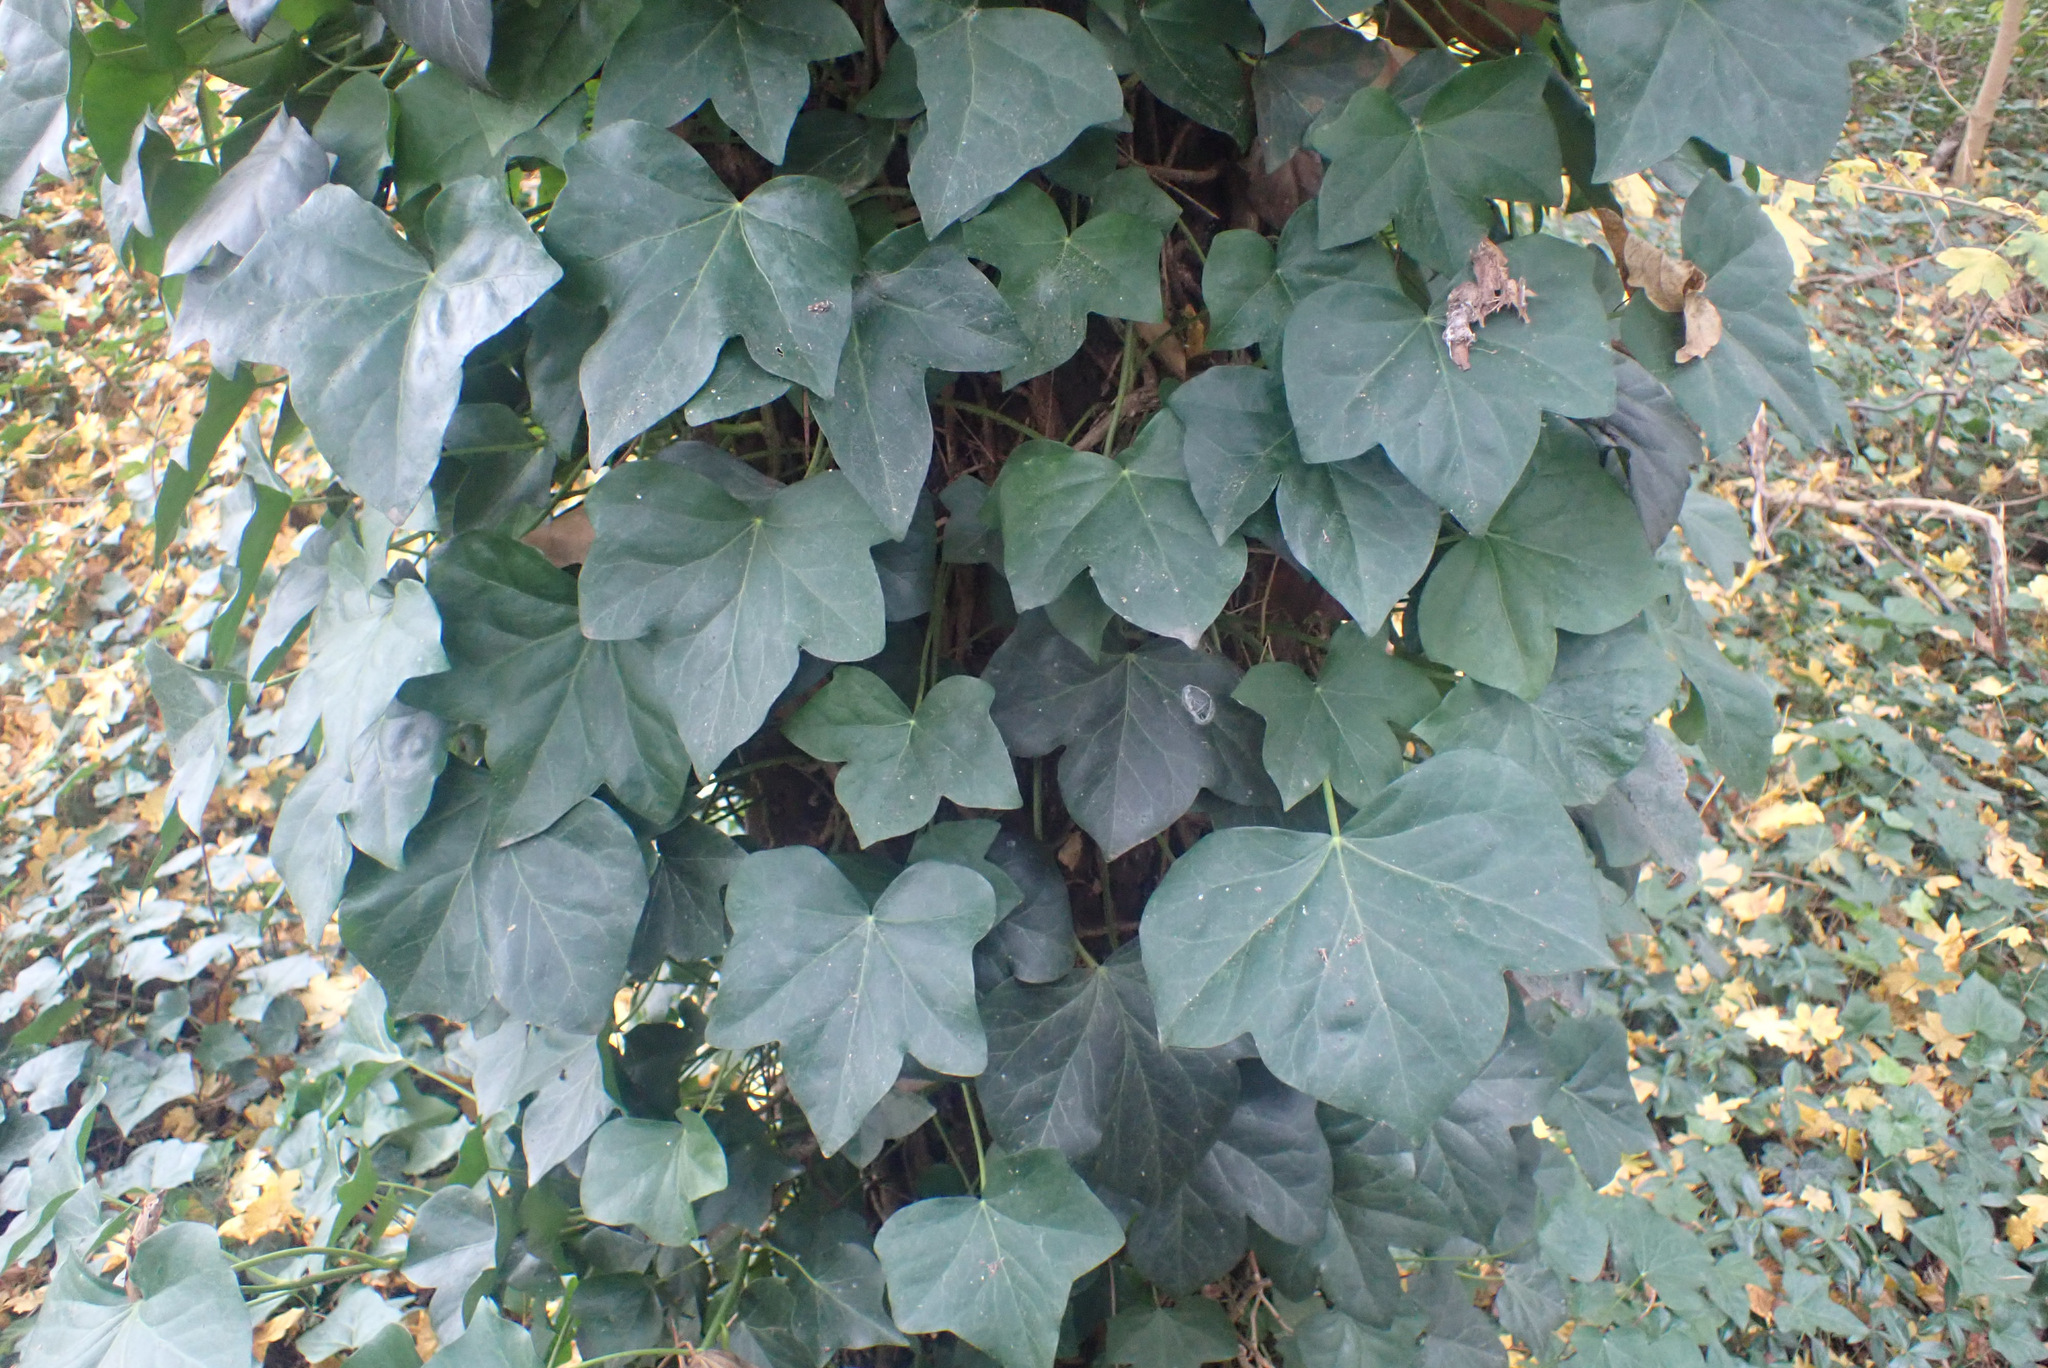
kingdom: Plantae
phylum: Tracheophyta
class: Magnoliopsida
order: Apiales
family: Araliaceae
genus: Hedera
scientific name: Hedera hibernica
